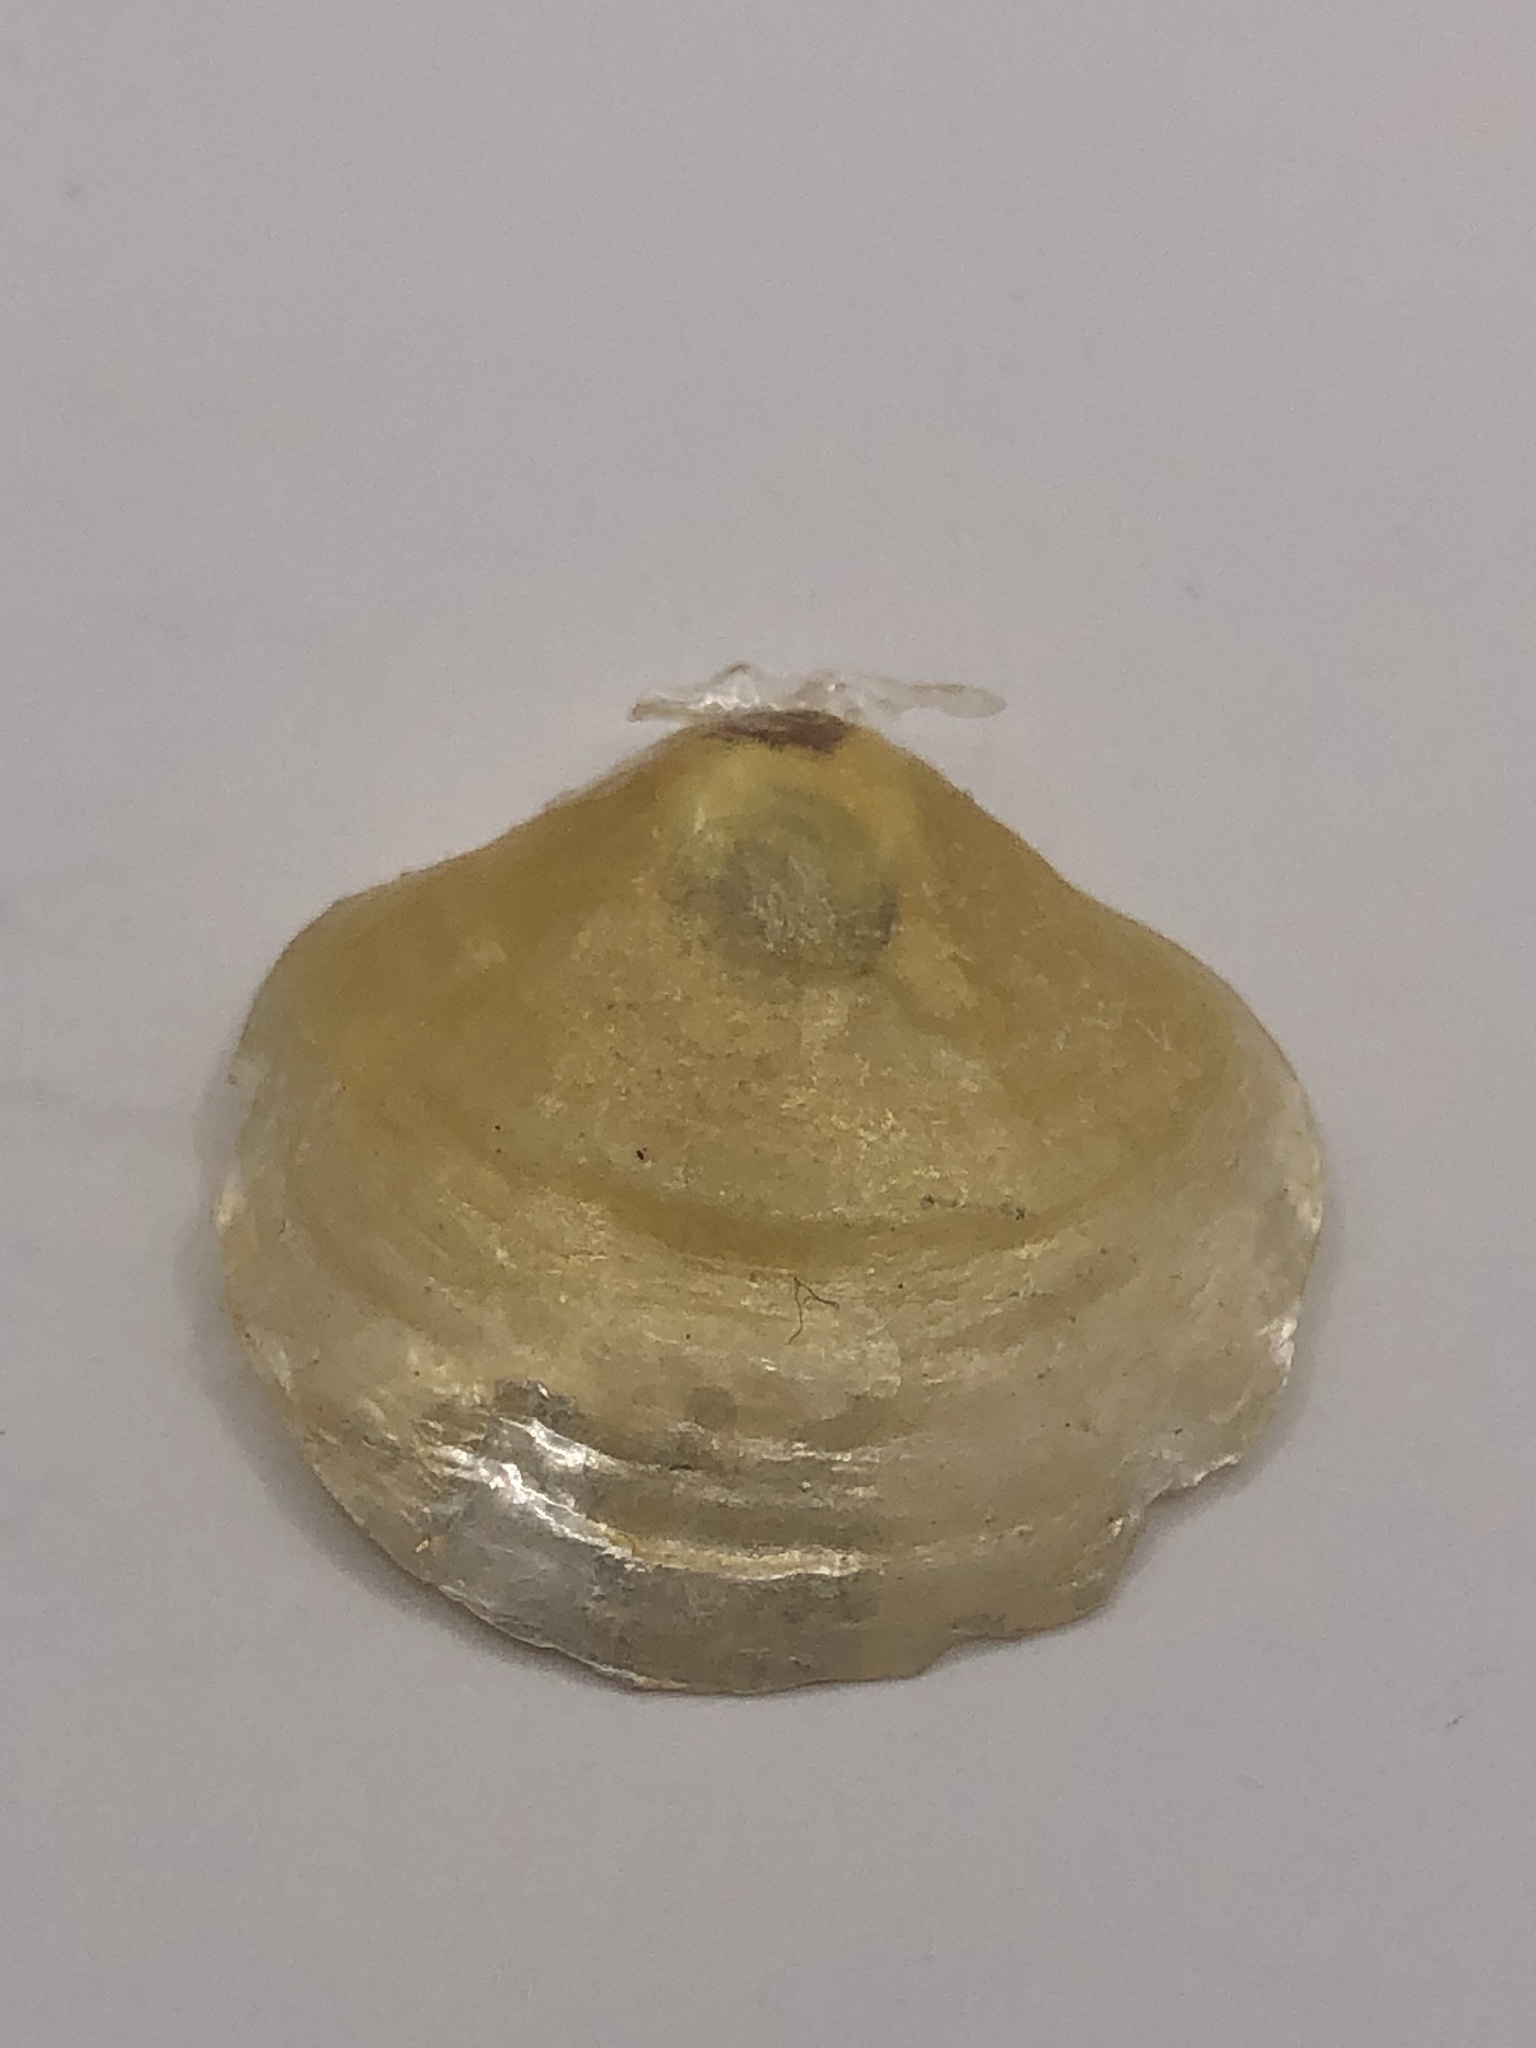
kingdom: Animalia
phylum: Mollusca
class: Bivalvia
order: Pectinida
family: Anomiidae
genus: Anomia
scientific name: Anomia simplex
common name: Common jingle shell
